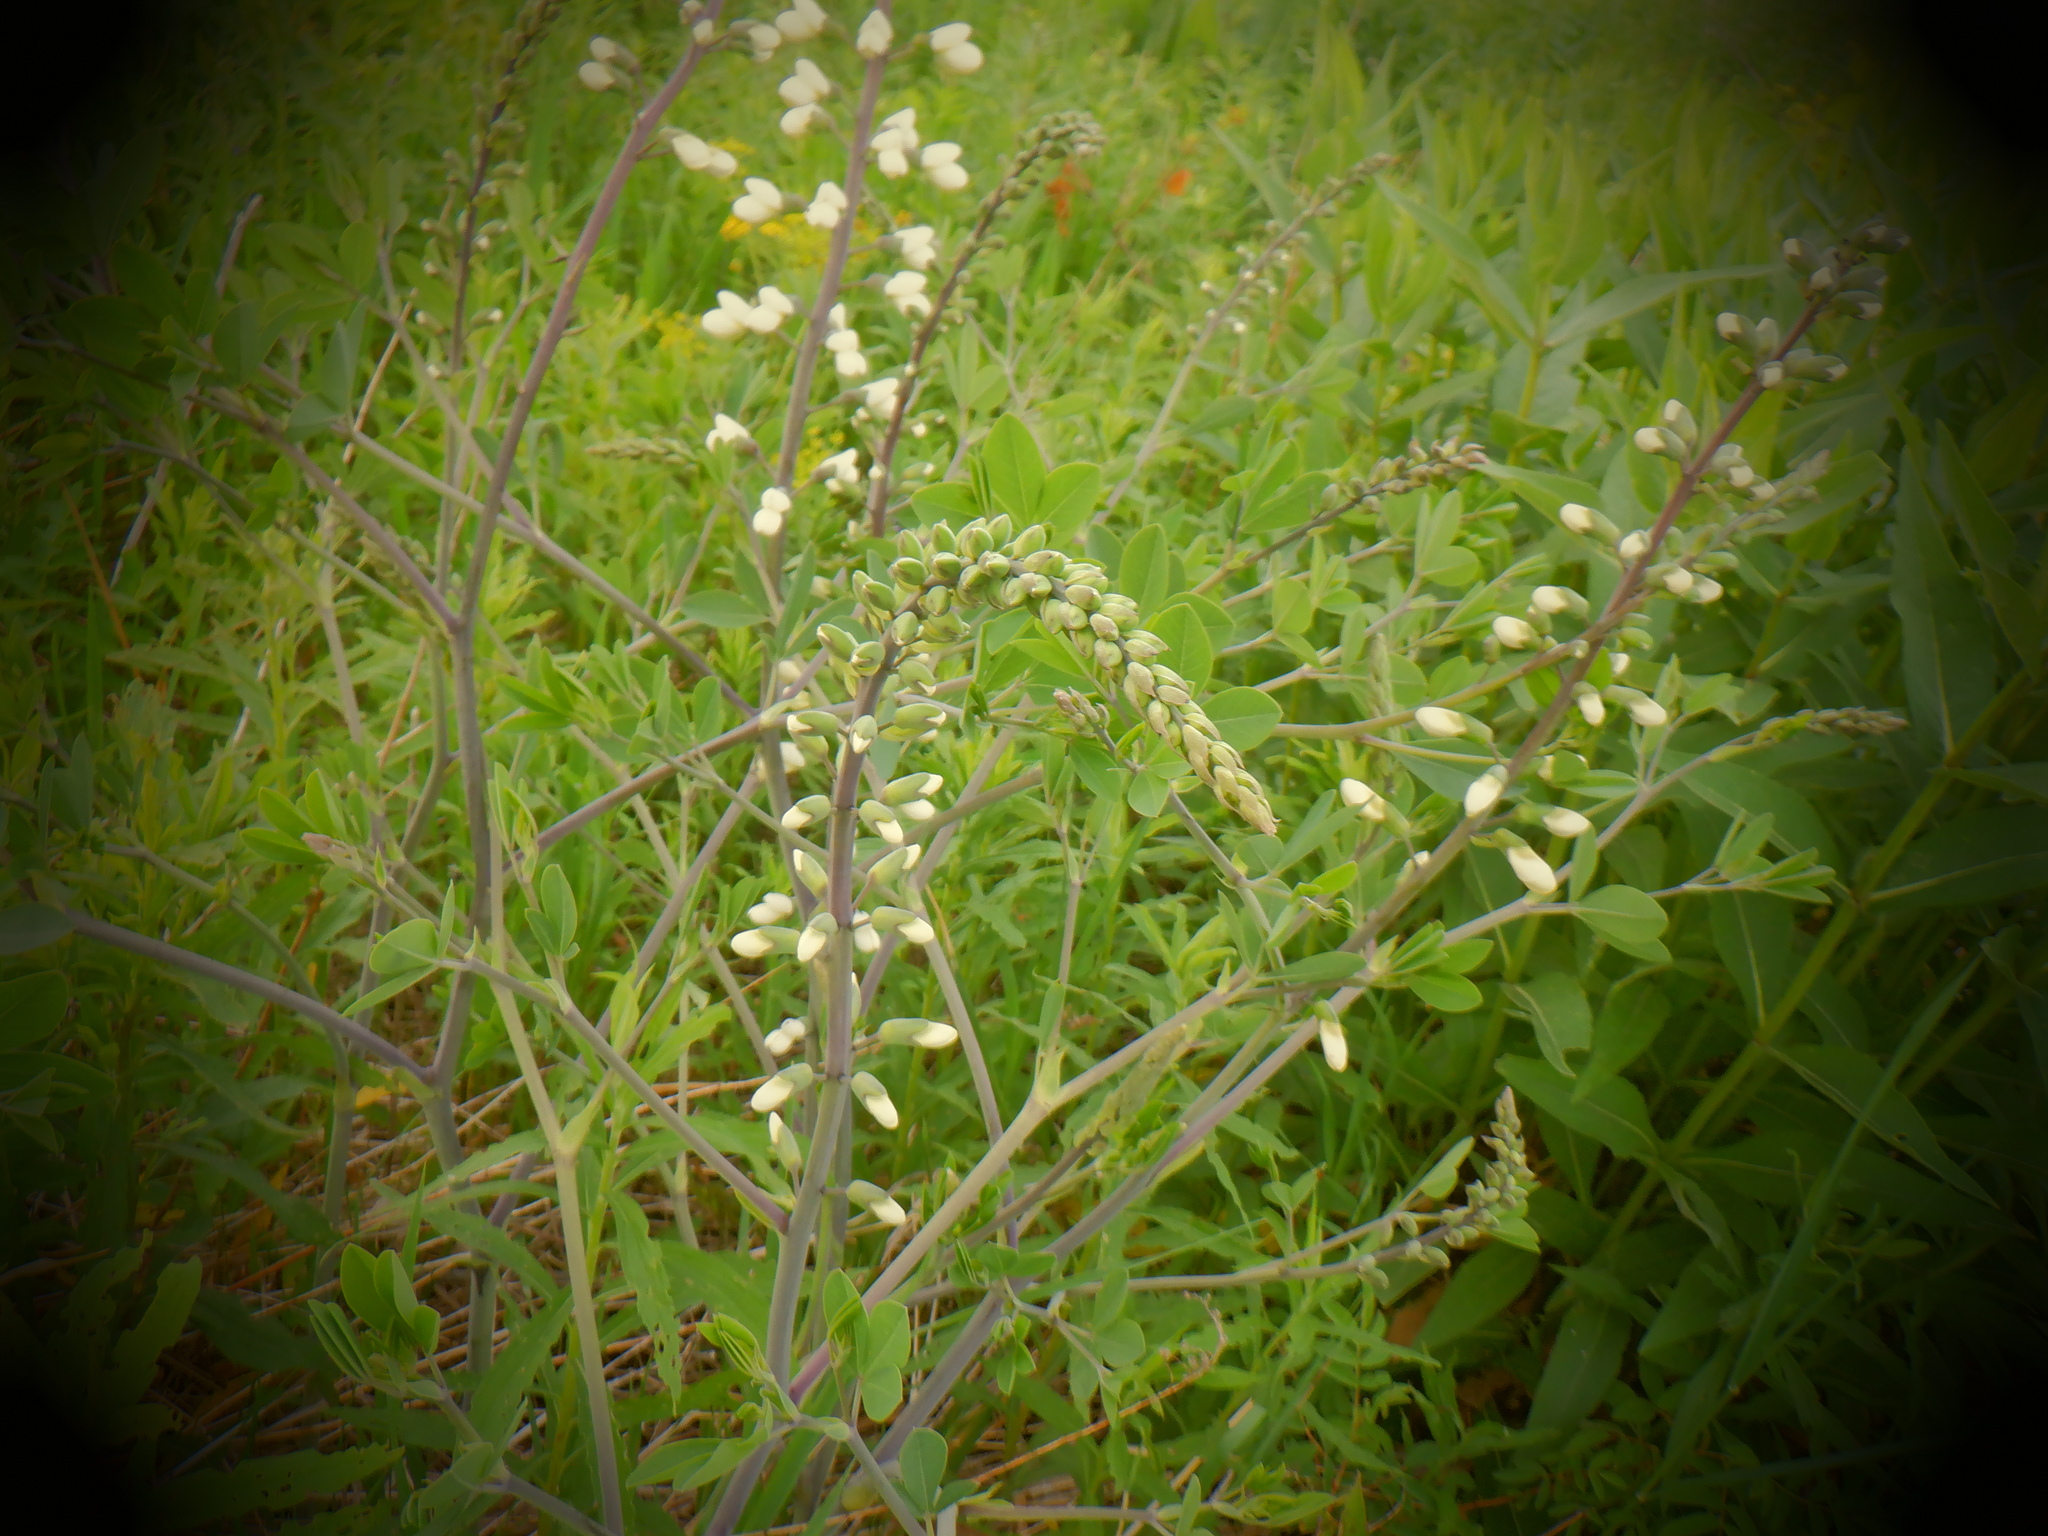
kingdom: Plantae
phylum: Tracheophyta
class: Magnoliopsida
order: Fabales
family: Fabaceae
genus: Baptisia
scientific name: Baptisia alba
